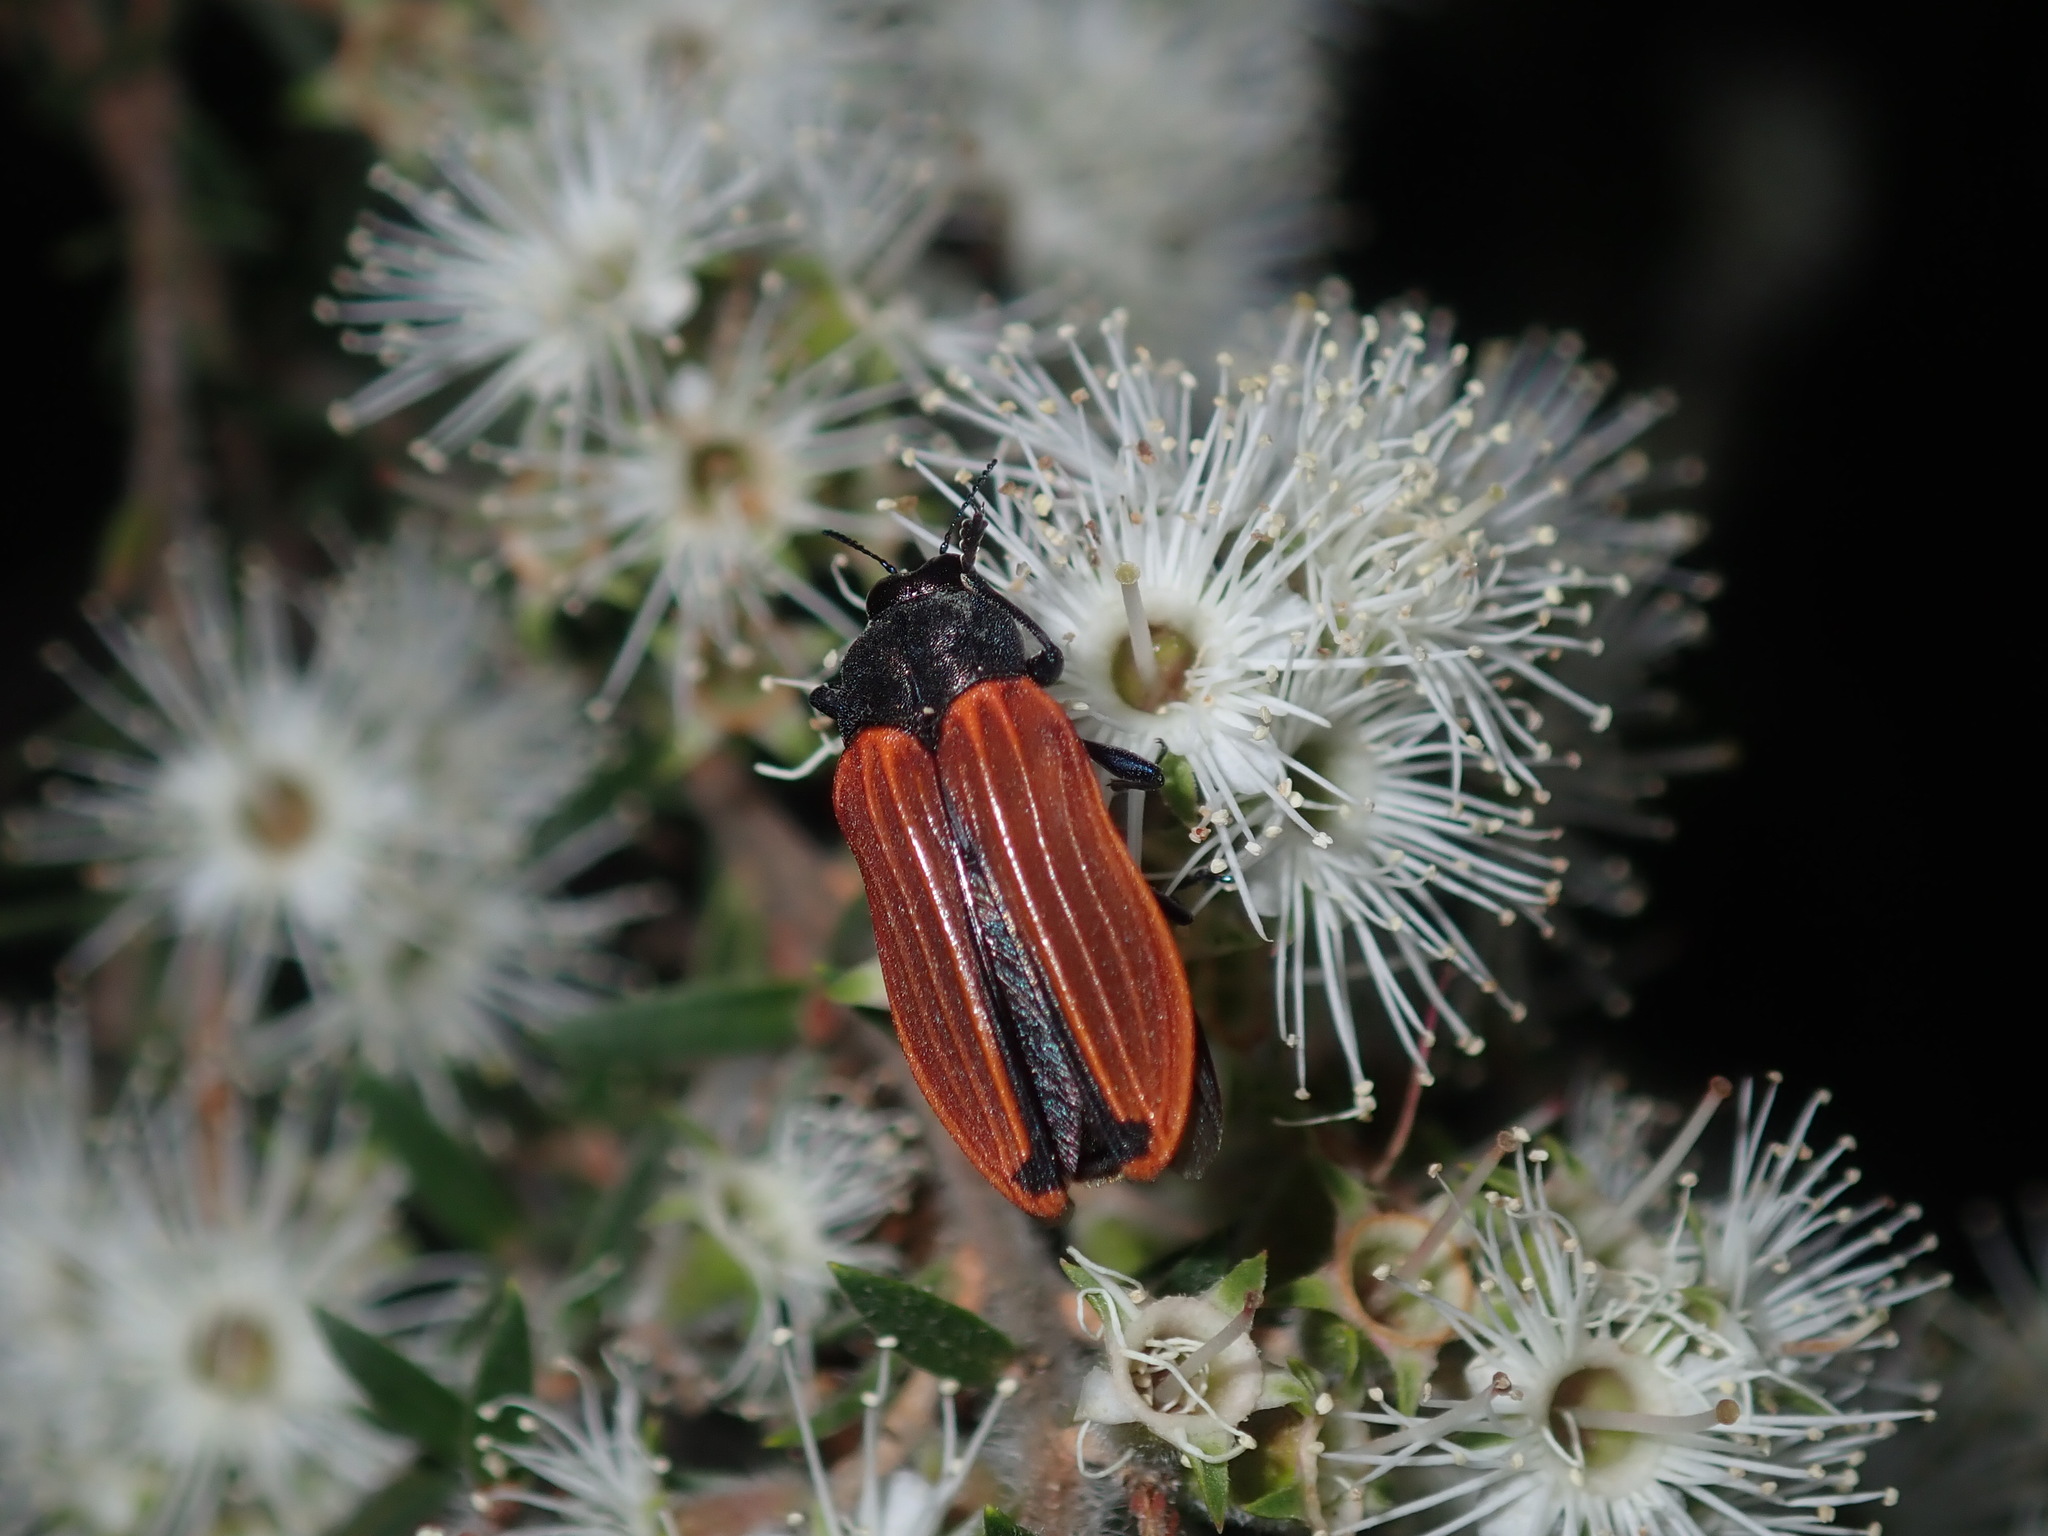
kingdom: Animalia
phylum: Arthropoda
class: Insecta
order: Coleoptera
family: Buprestidae
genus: Castiarina
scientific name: Castiarina erythroptera
